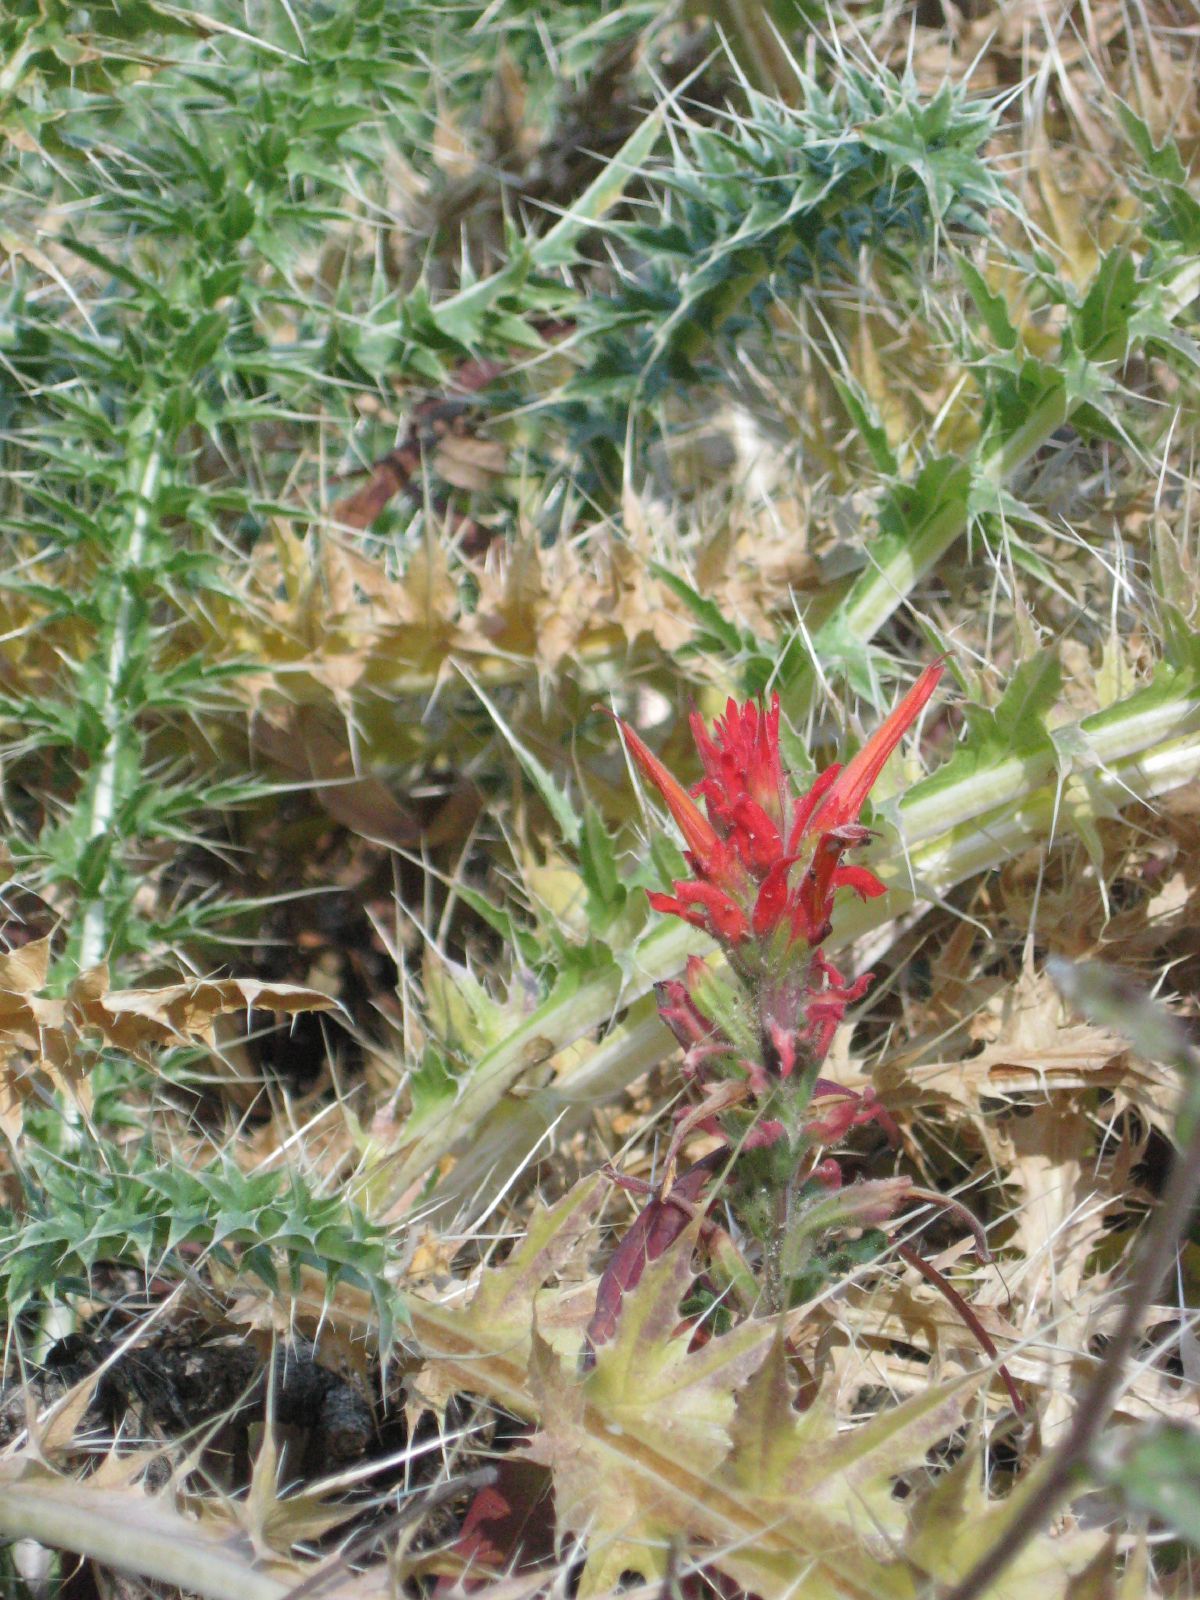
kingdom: Plantae
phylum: Tracheophyta
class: Magnoliopsida
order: Lamiales
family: Orobanchaceae
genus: Castilleja
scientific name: Castilleja martini
